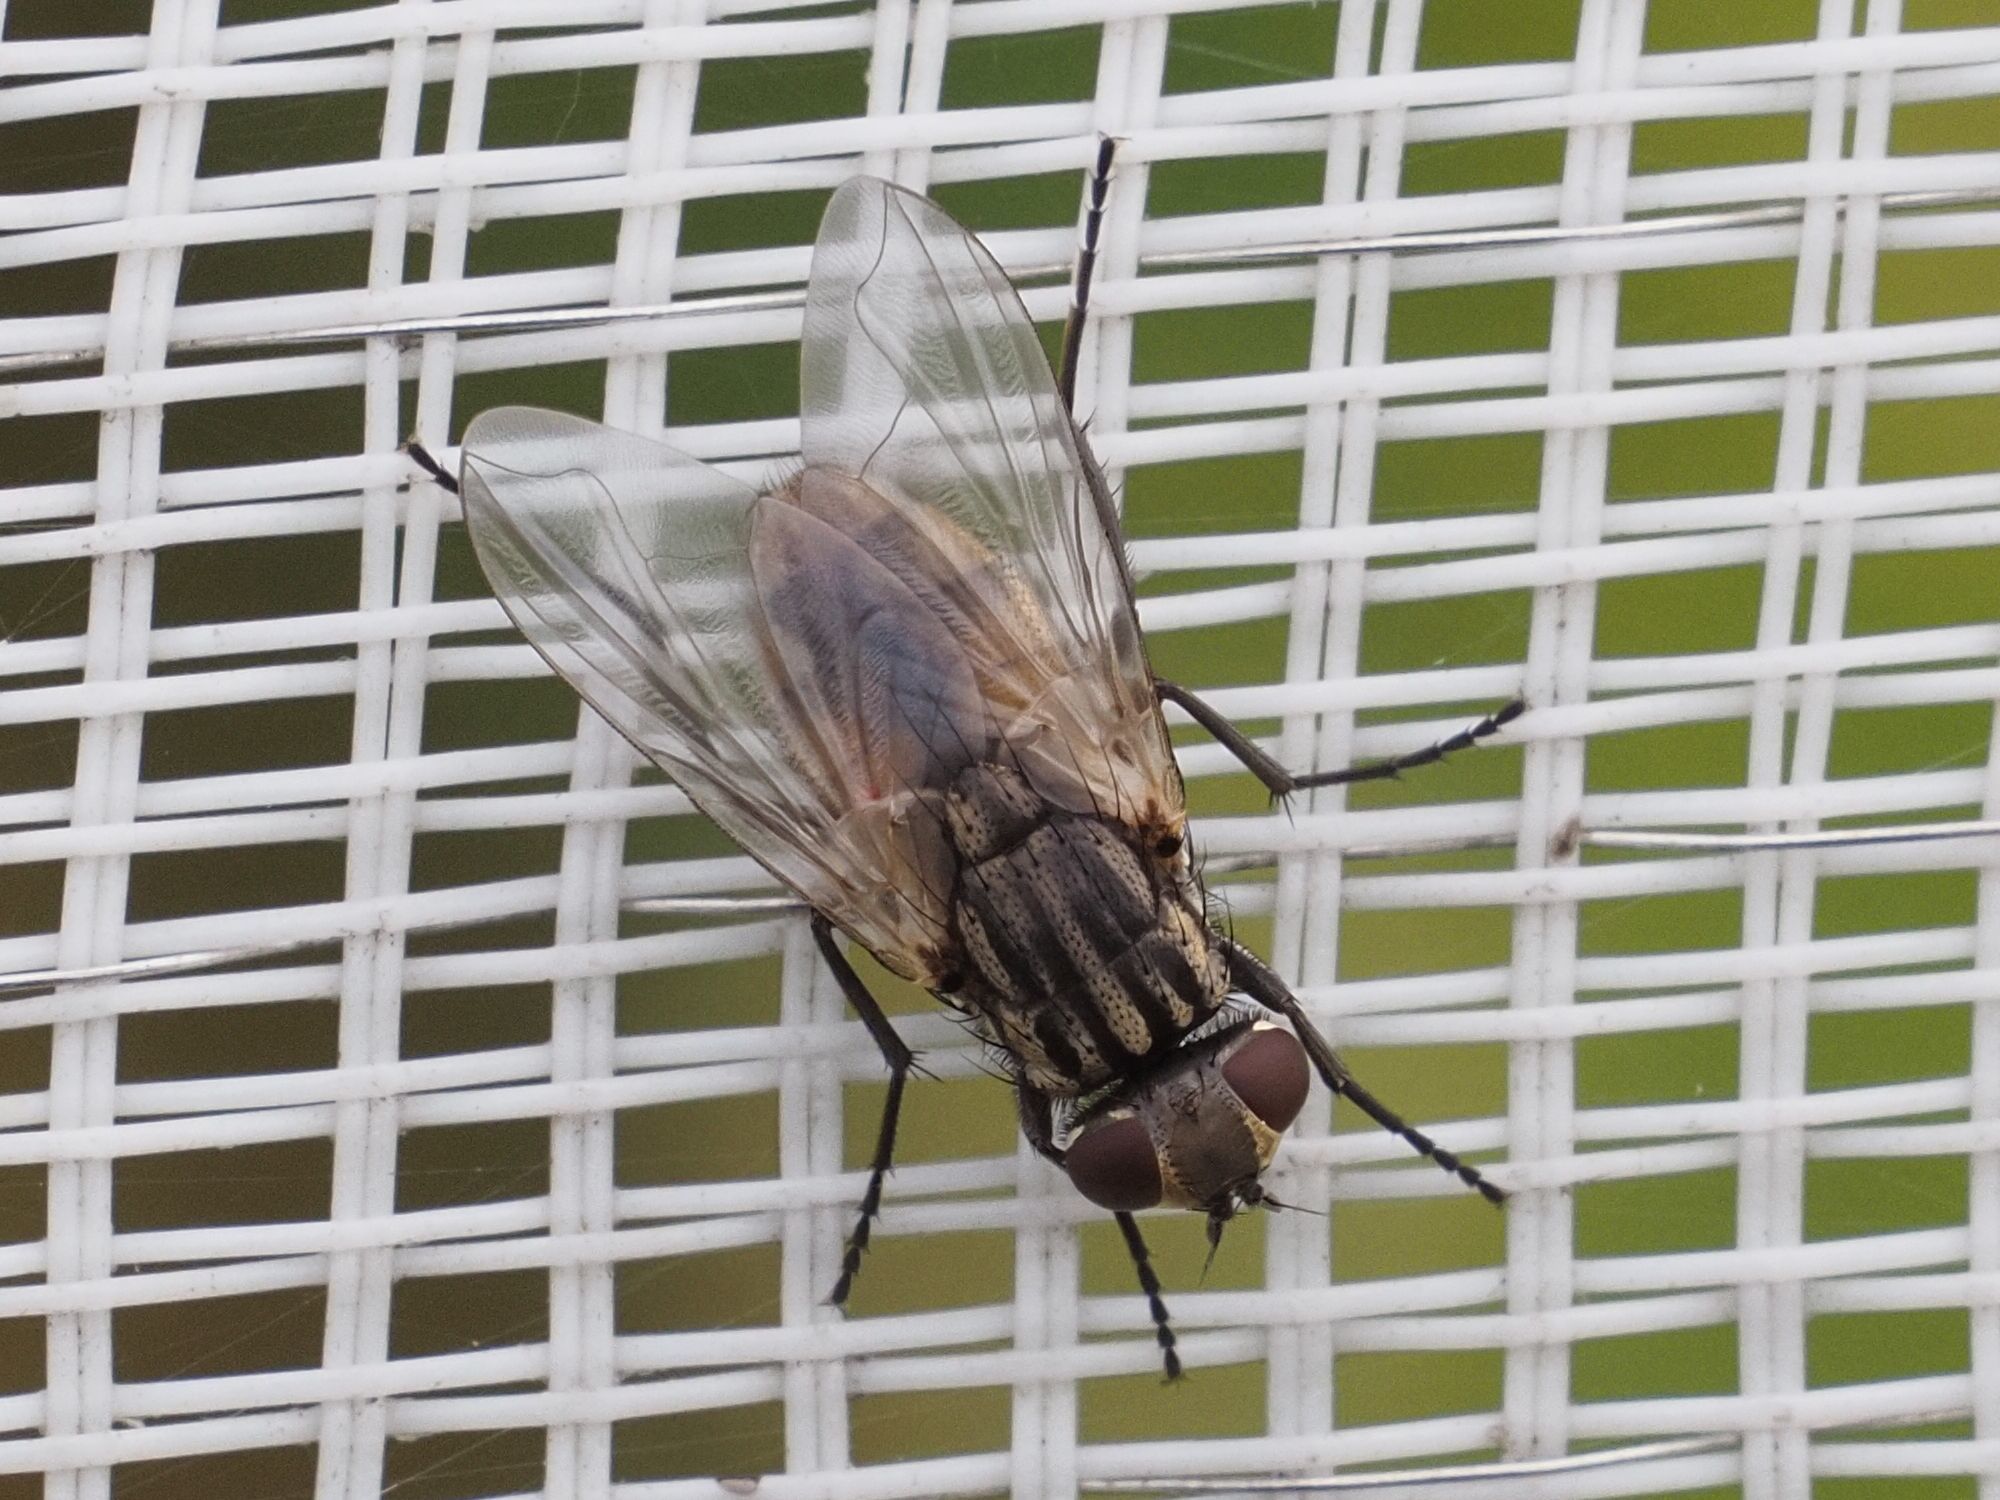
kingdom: Animalia
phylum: Arthropoda
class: Insecta
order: Diptera
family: Muscidae
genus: Musca
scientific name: Musca domestica
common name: House fly
